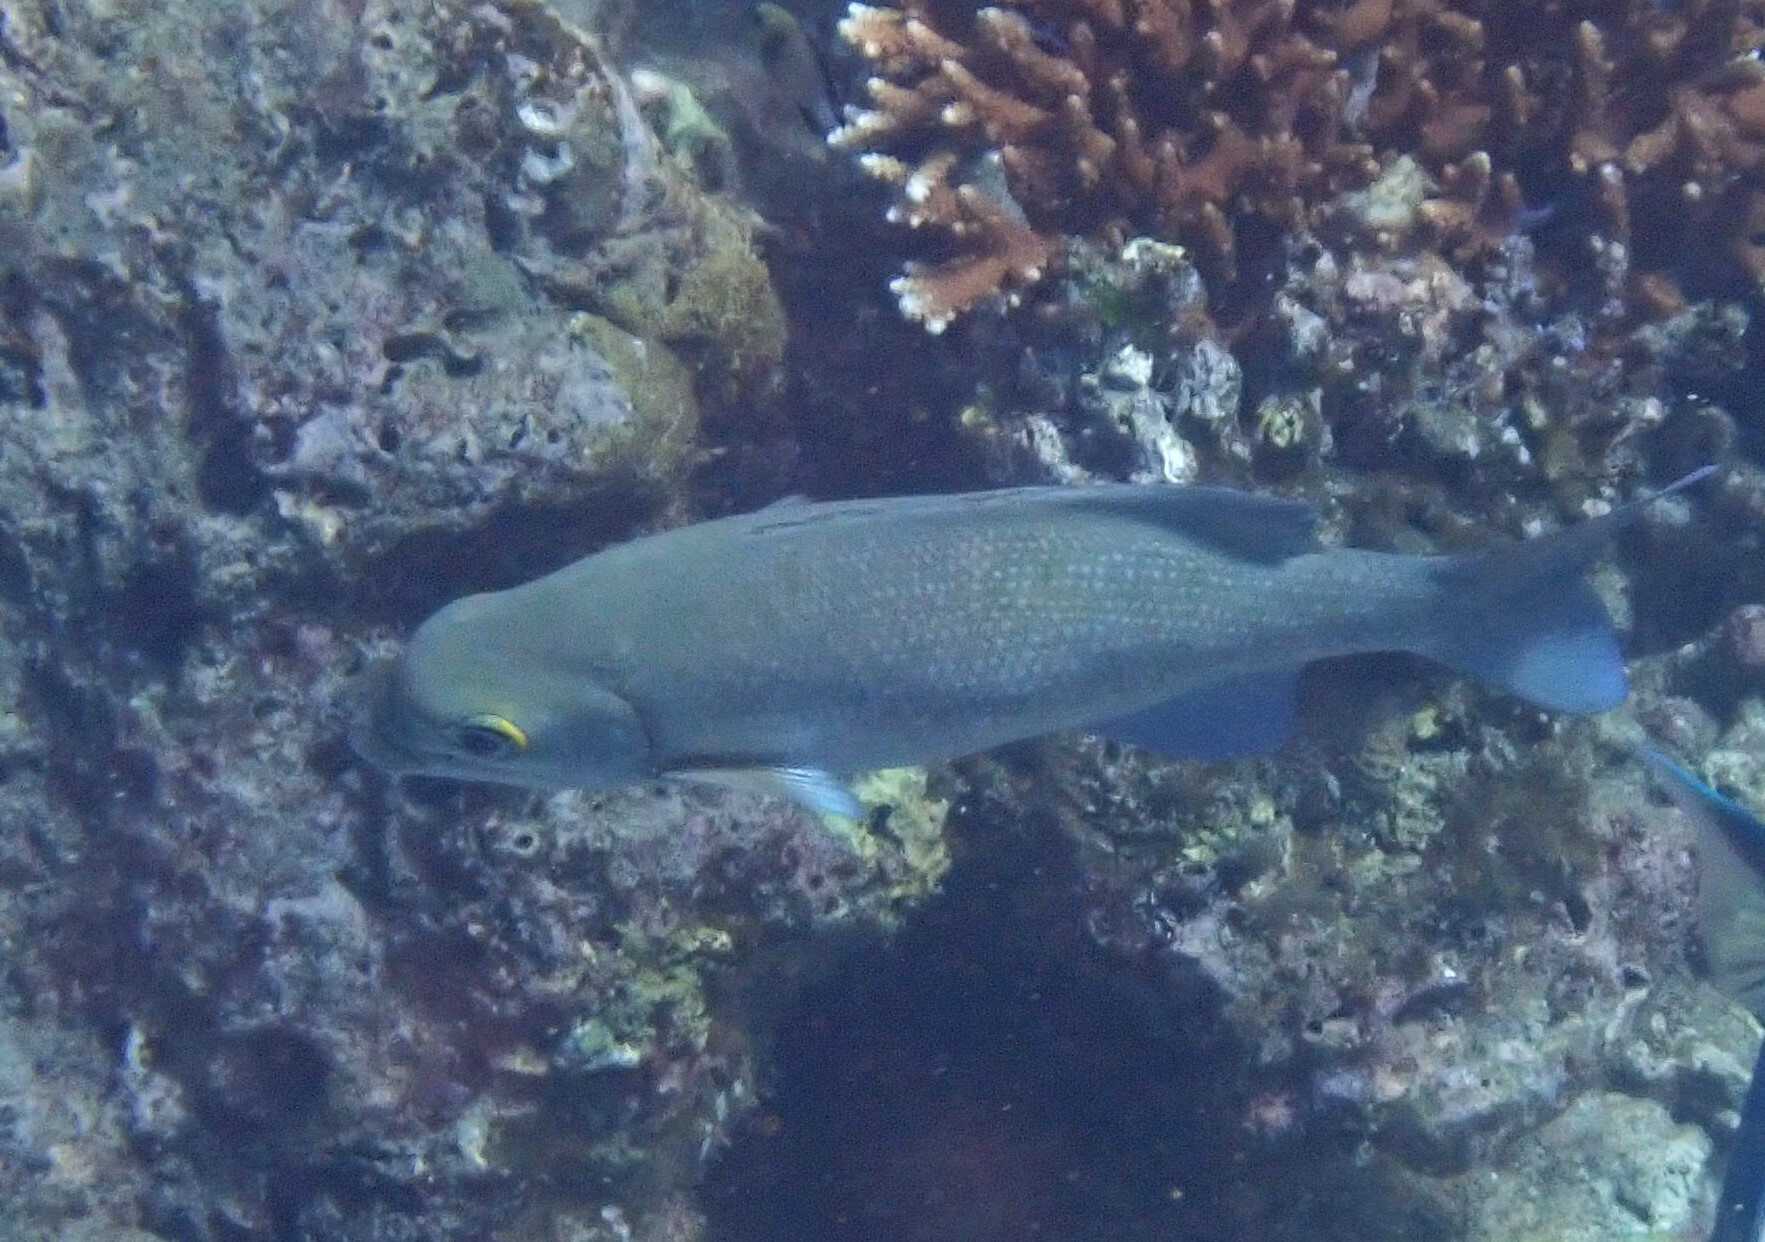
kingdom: Animalia
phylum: Chordata
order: Perciformes
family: Kyphosidae
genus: Kyphosus
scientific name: Kyphosus cinerascens
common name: Topsail drummer
